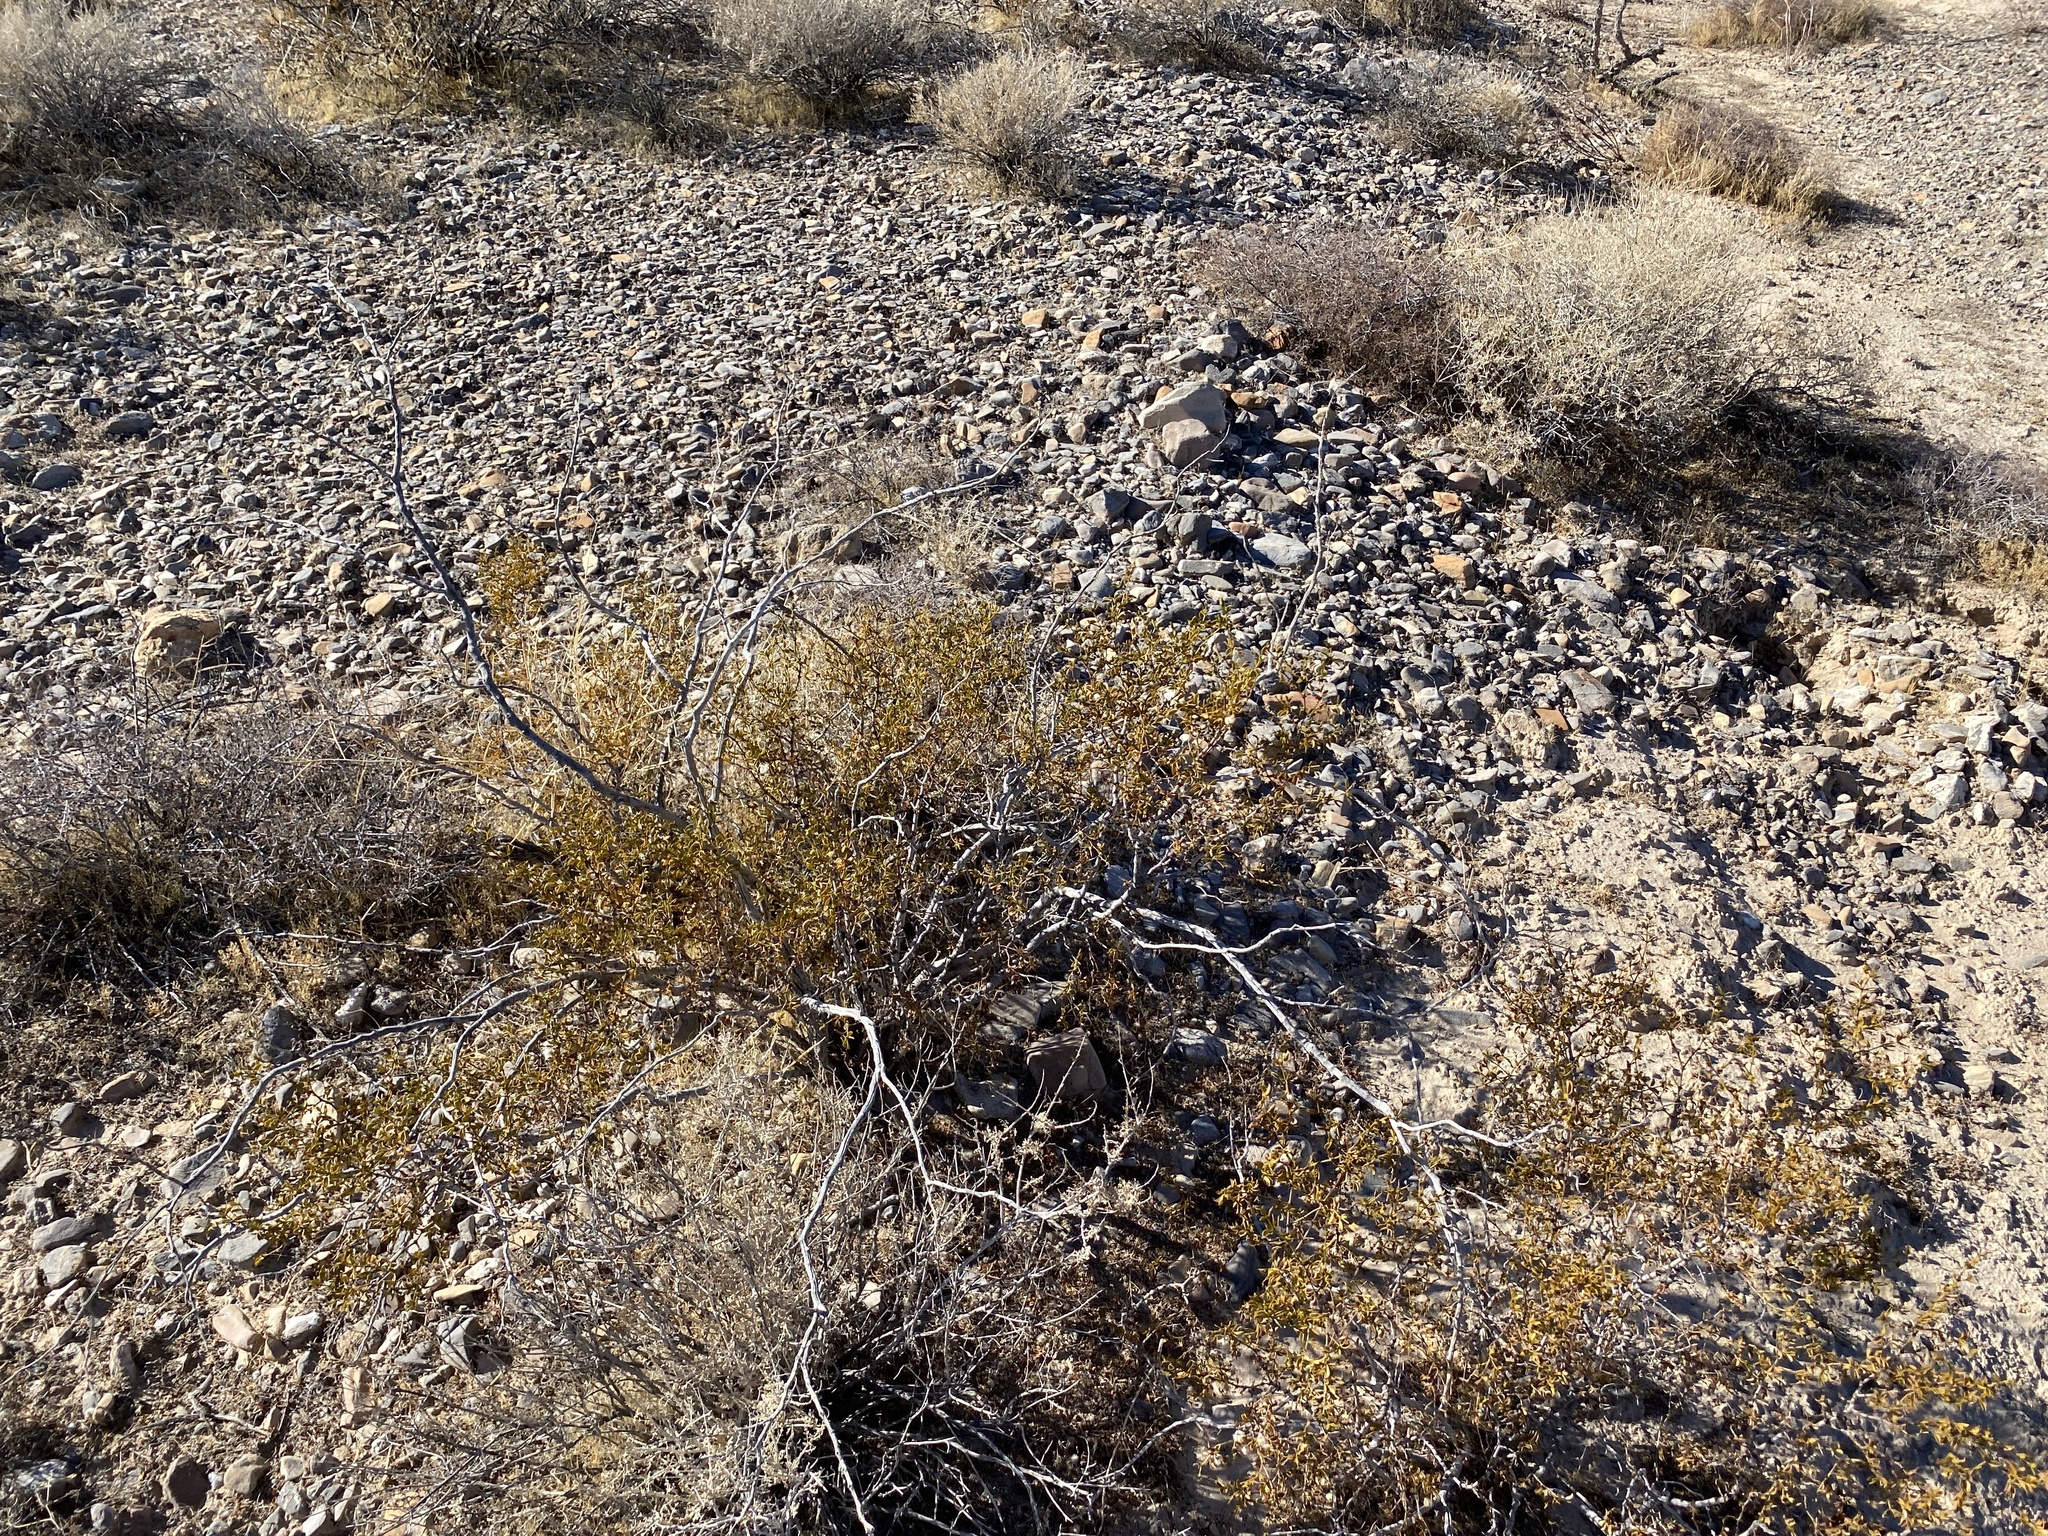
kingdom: Plantae
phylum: Tracheophyta
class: Magnoliopsida
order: Zygophyllales
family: Zygophyllaceae
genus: Larrea
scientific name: Larrea tridentata
